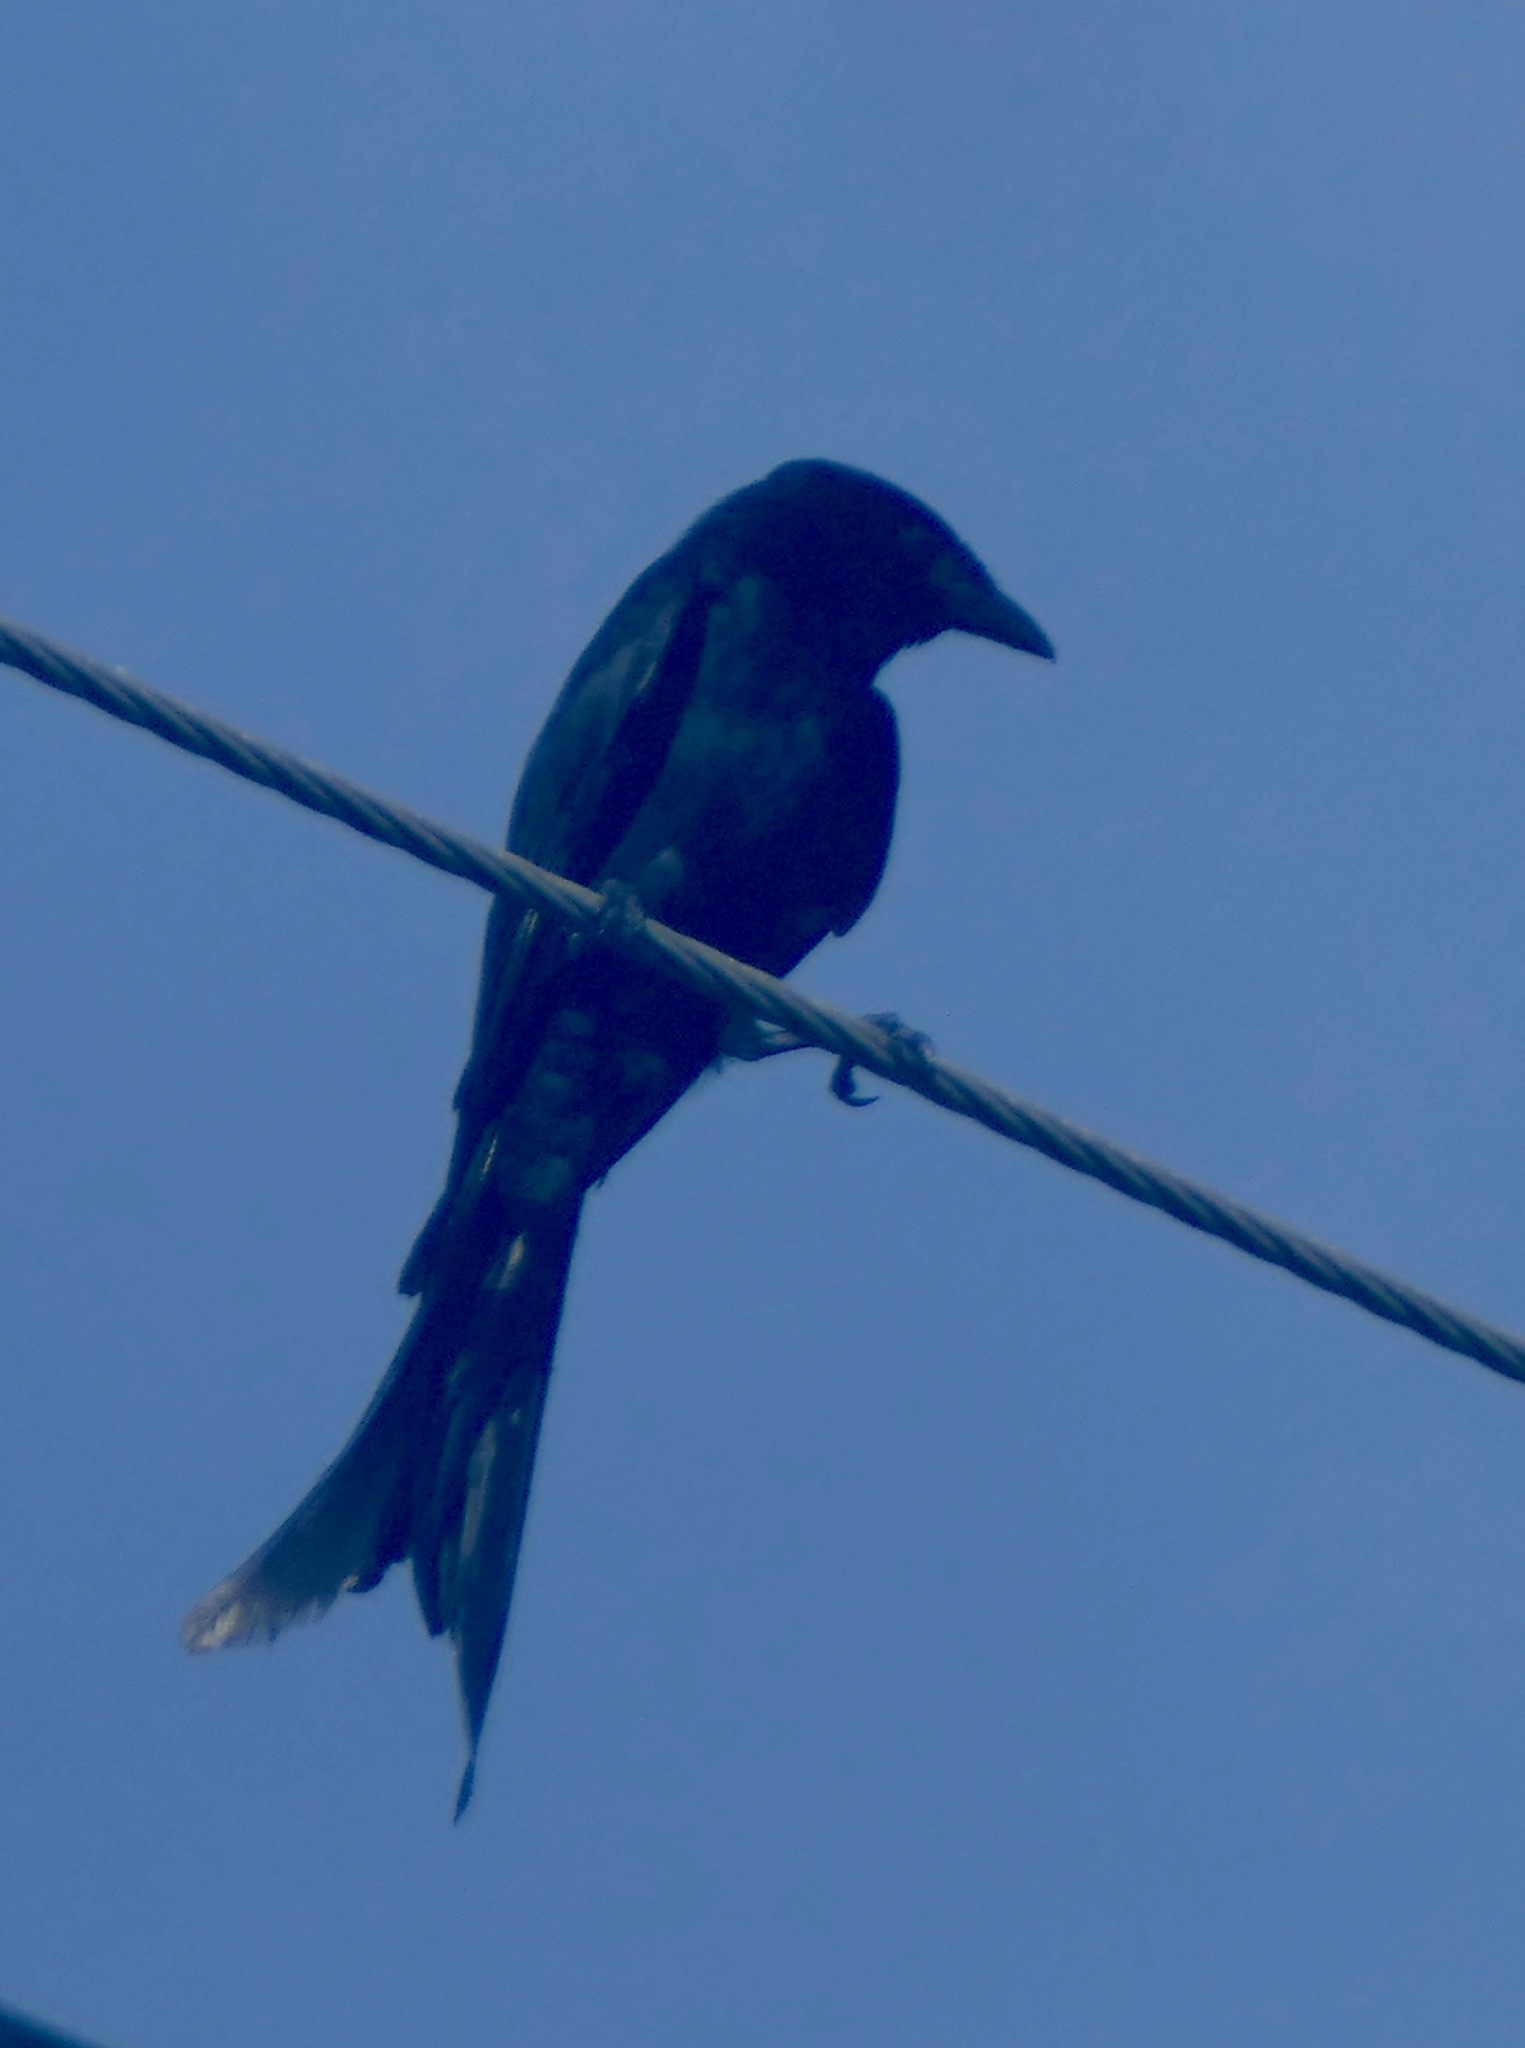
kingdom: Animalia
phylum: Chordata
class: Aves
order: Passeriformes
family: Dicruridae
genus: Dicrurus
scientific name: Dicrurus macrocercus
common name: Black drongo
